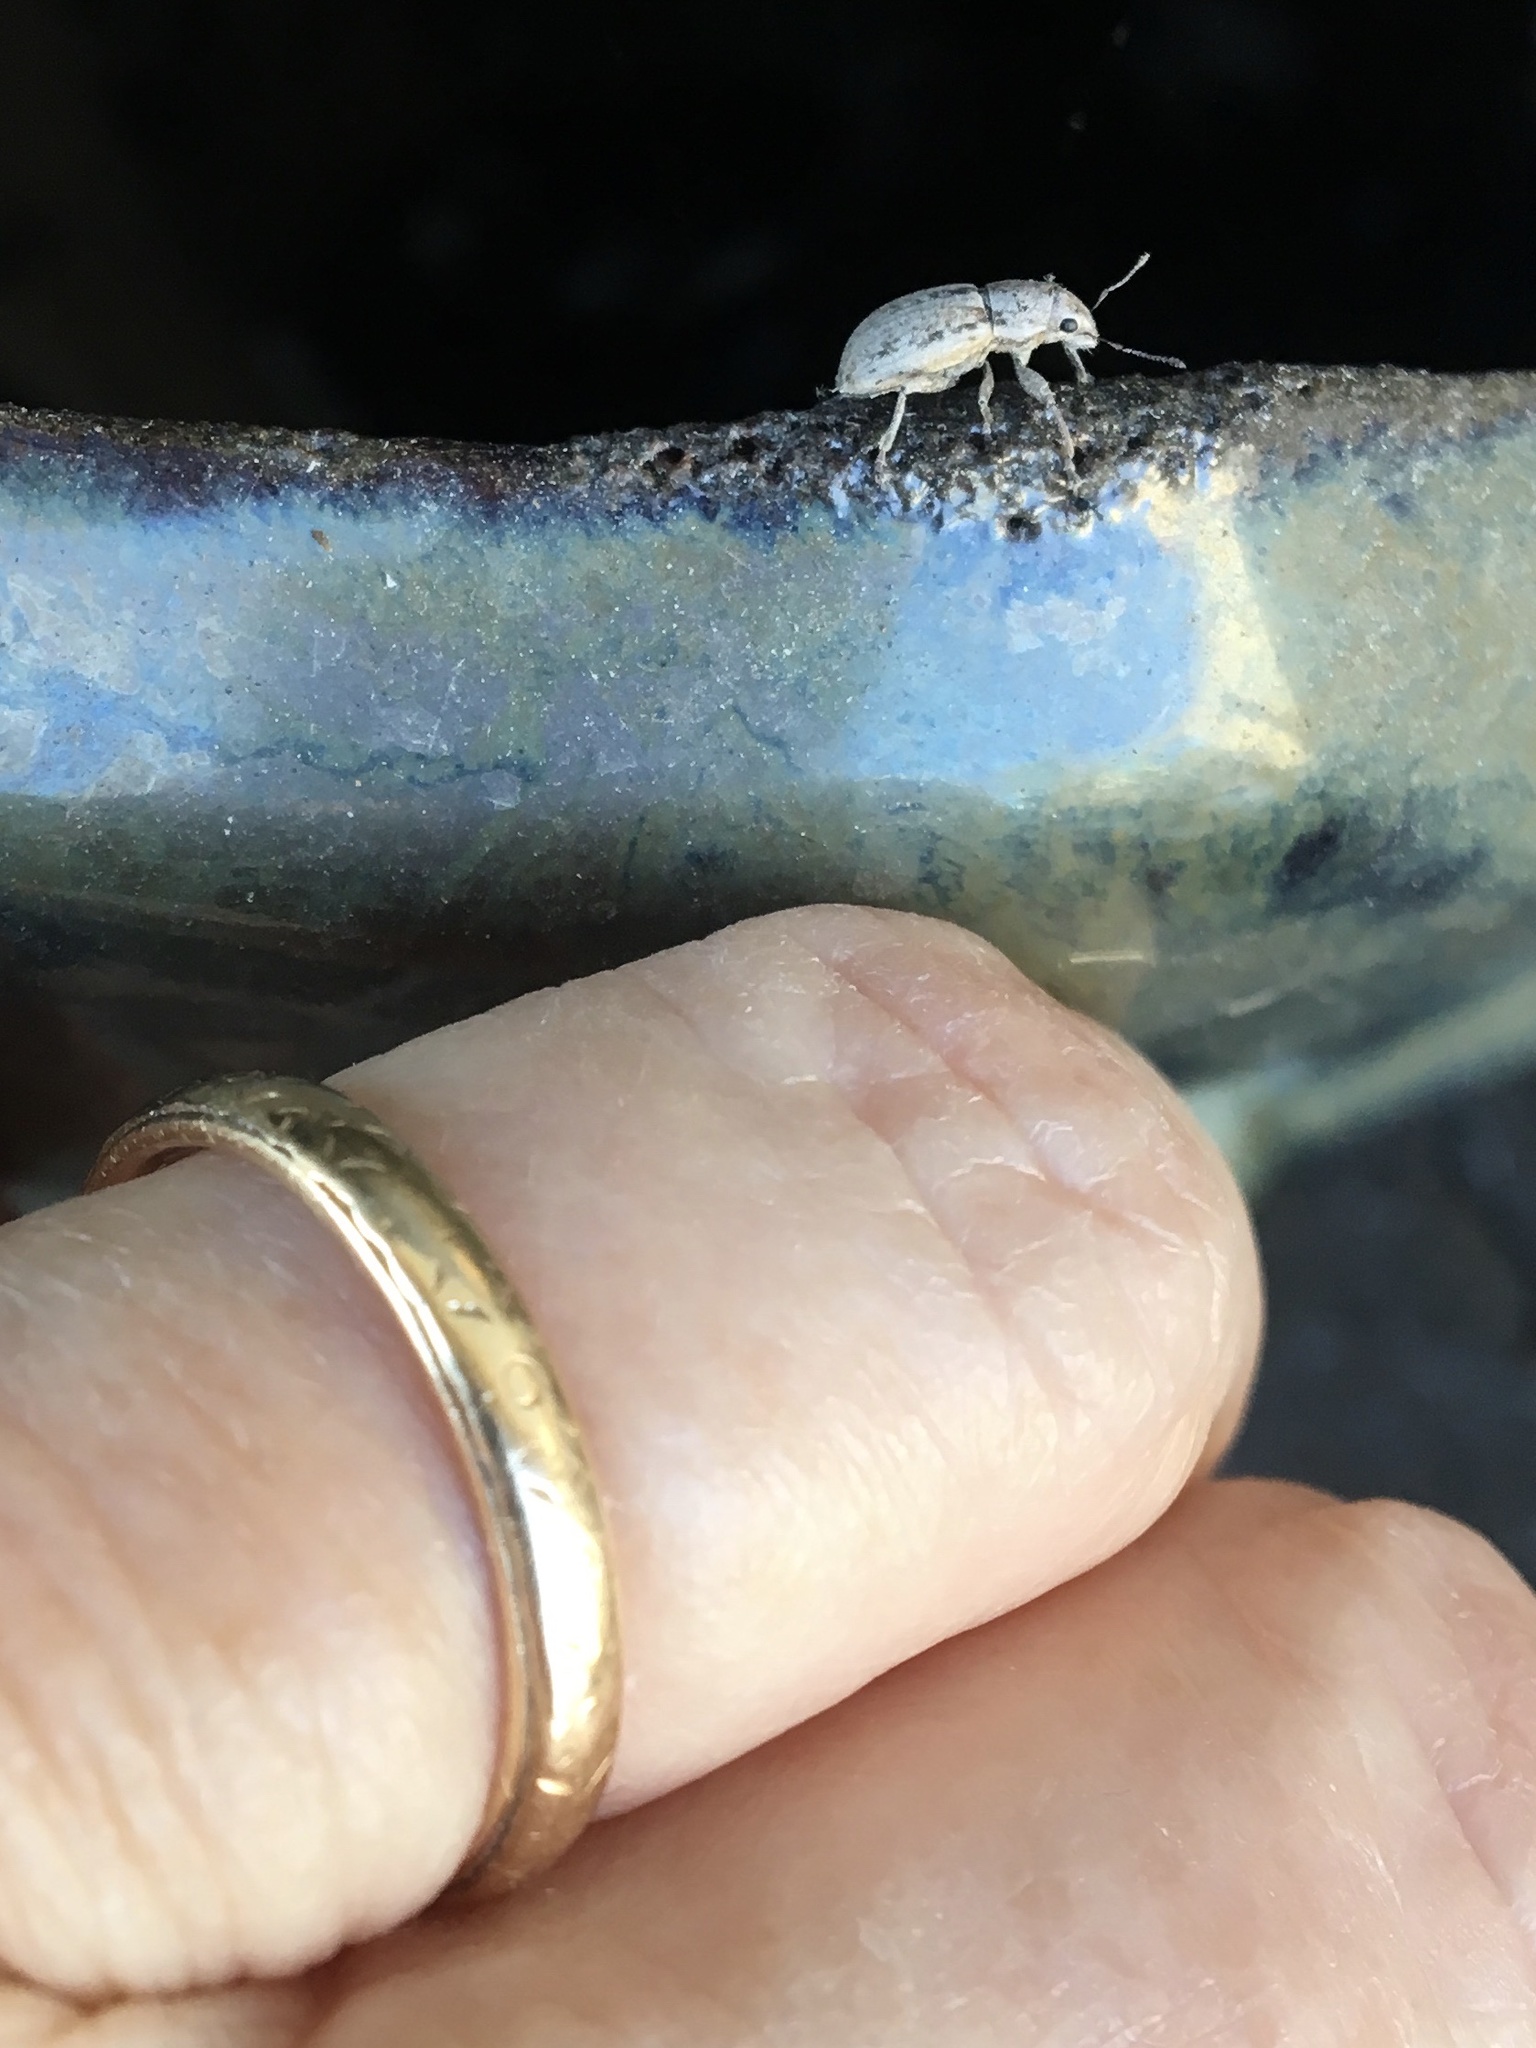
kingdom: Animalia
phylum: Arthropoda
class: Insecta
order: Coleoptera
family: Curculionidae
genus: Atrichonotus
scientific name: Atrichonotus taeniatulus
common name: Small lucerne weevil
